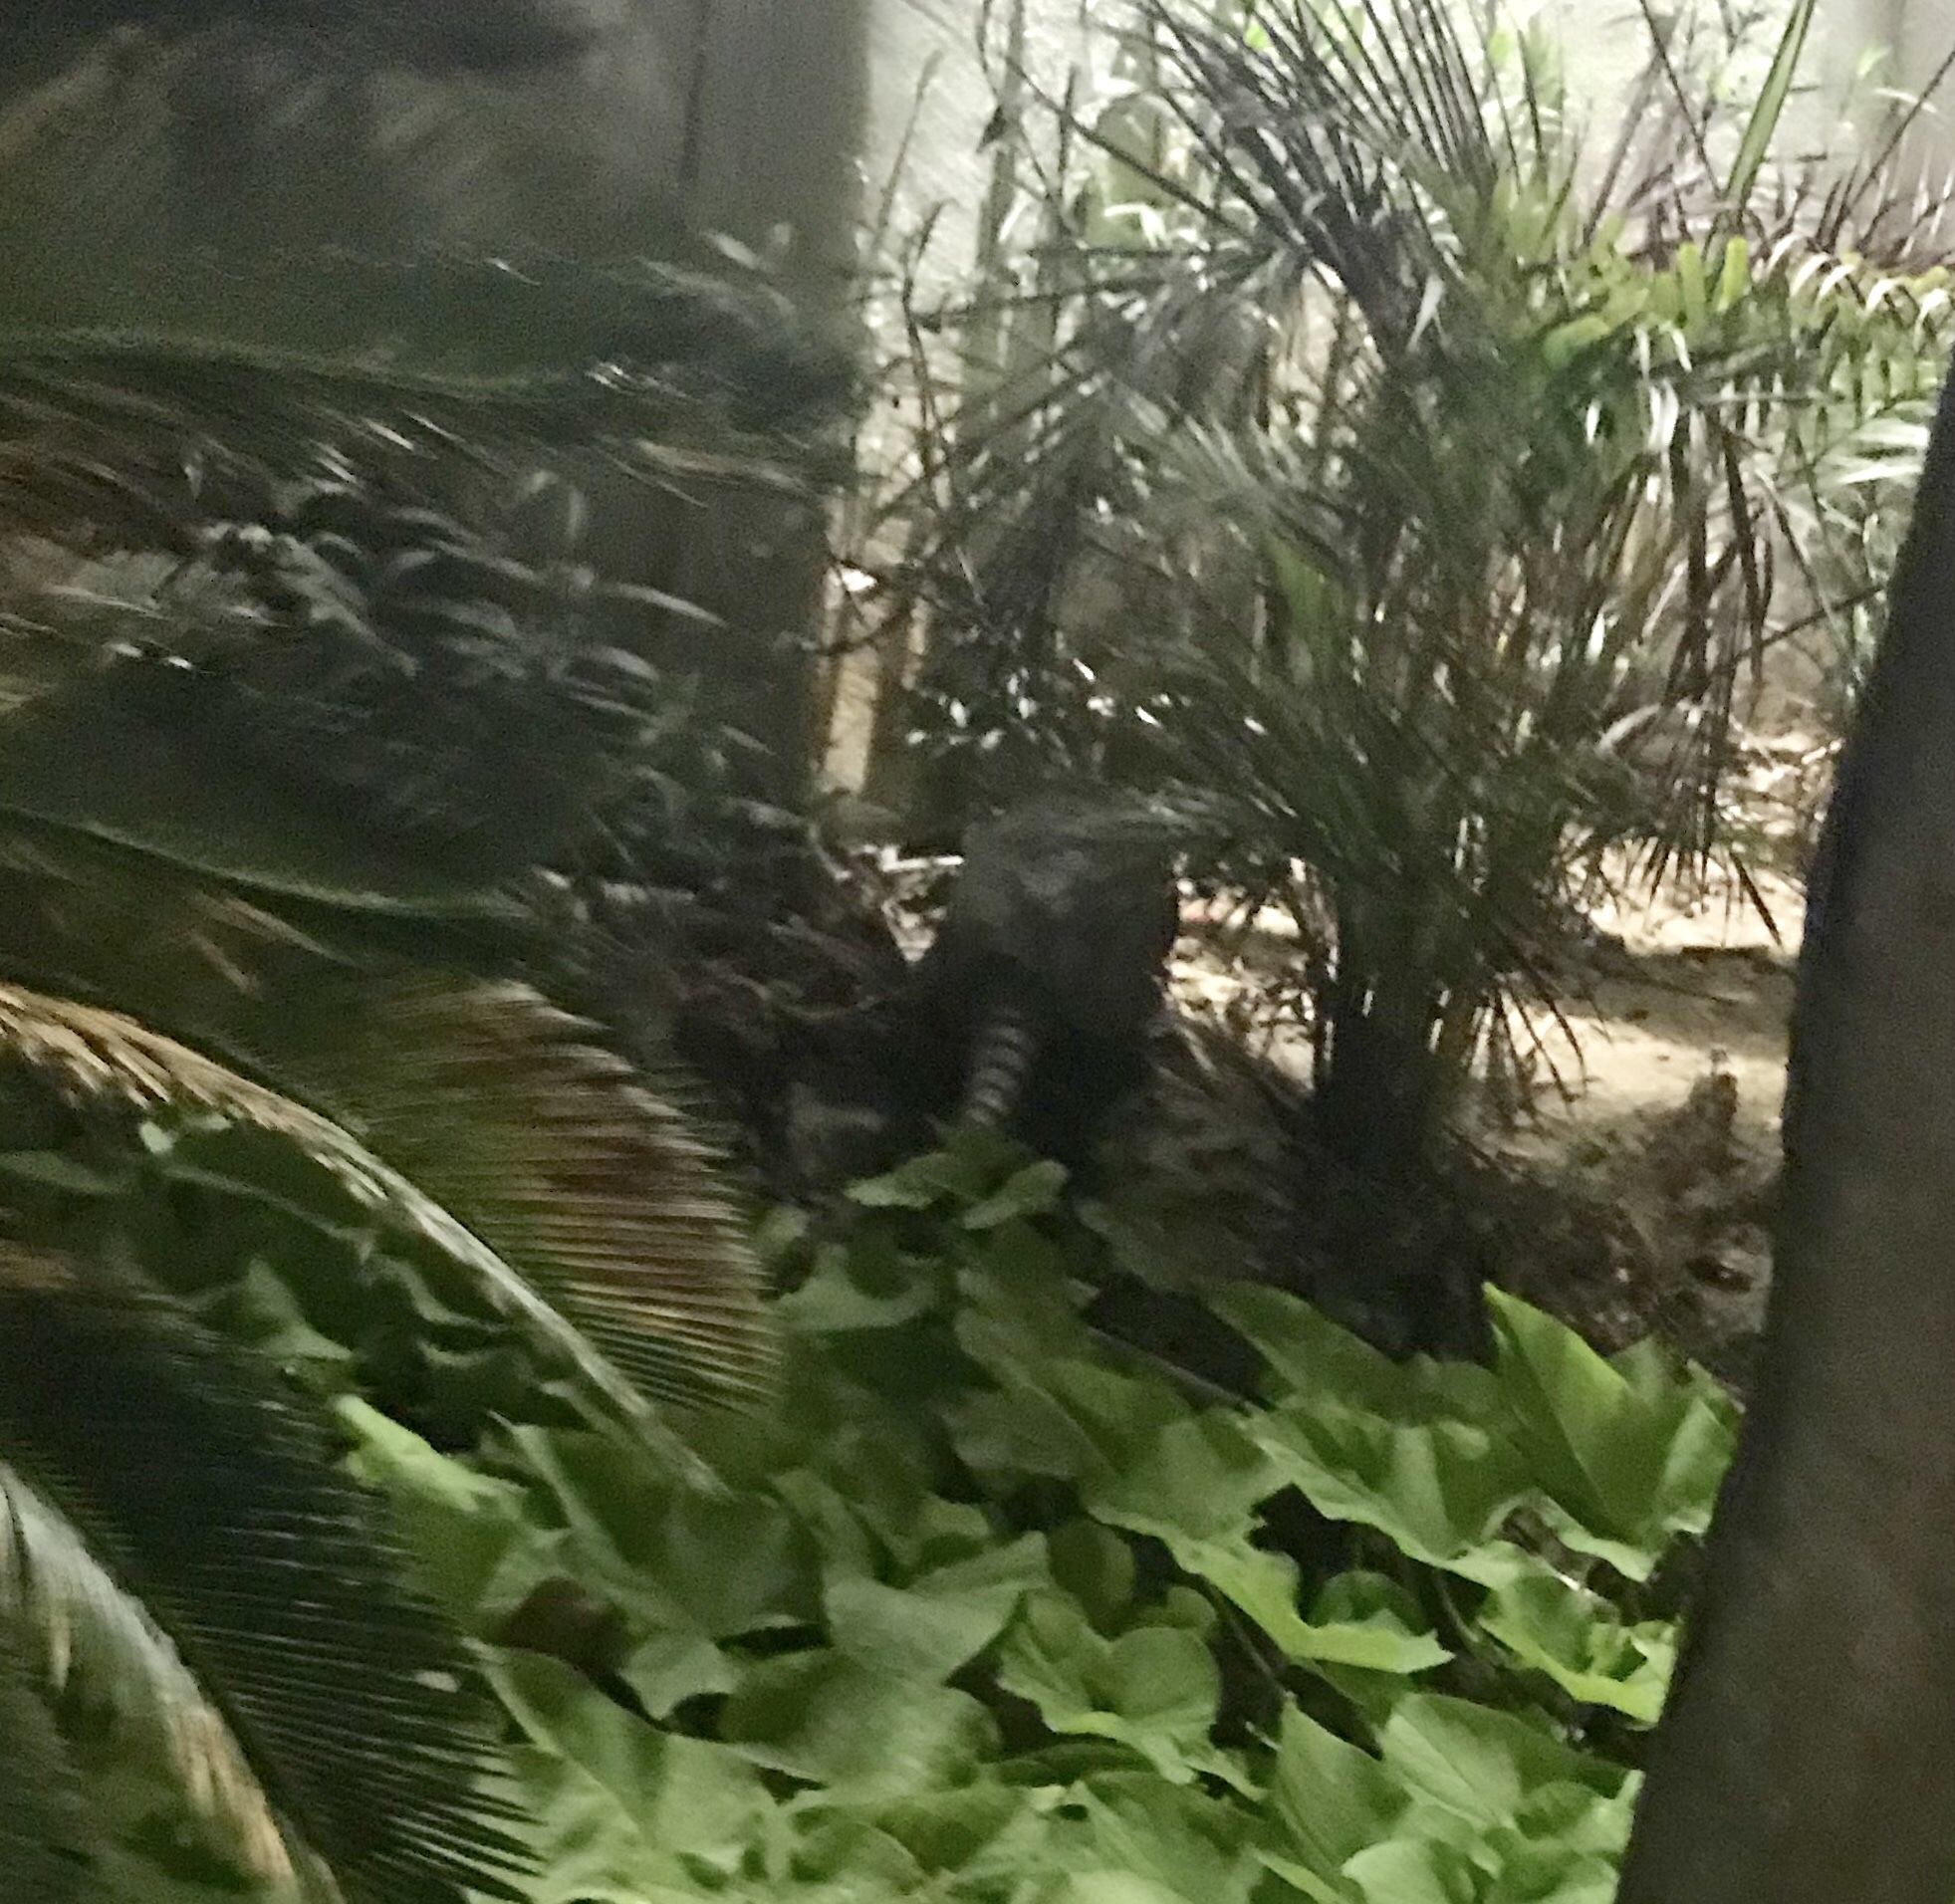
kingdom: Animalia
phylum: Chordata
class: Mammalia
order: Cingulata
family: Dasypodidae
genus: Dasypus
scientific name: Dasypus novemcinctus
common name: Nine-banded armadillo
